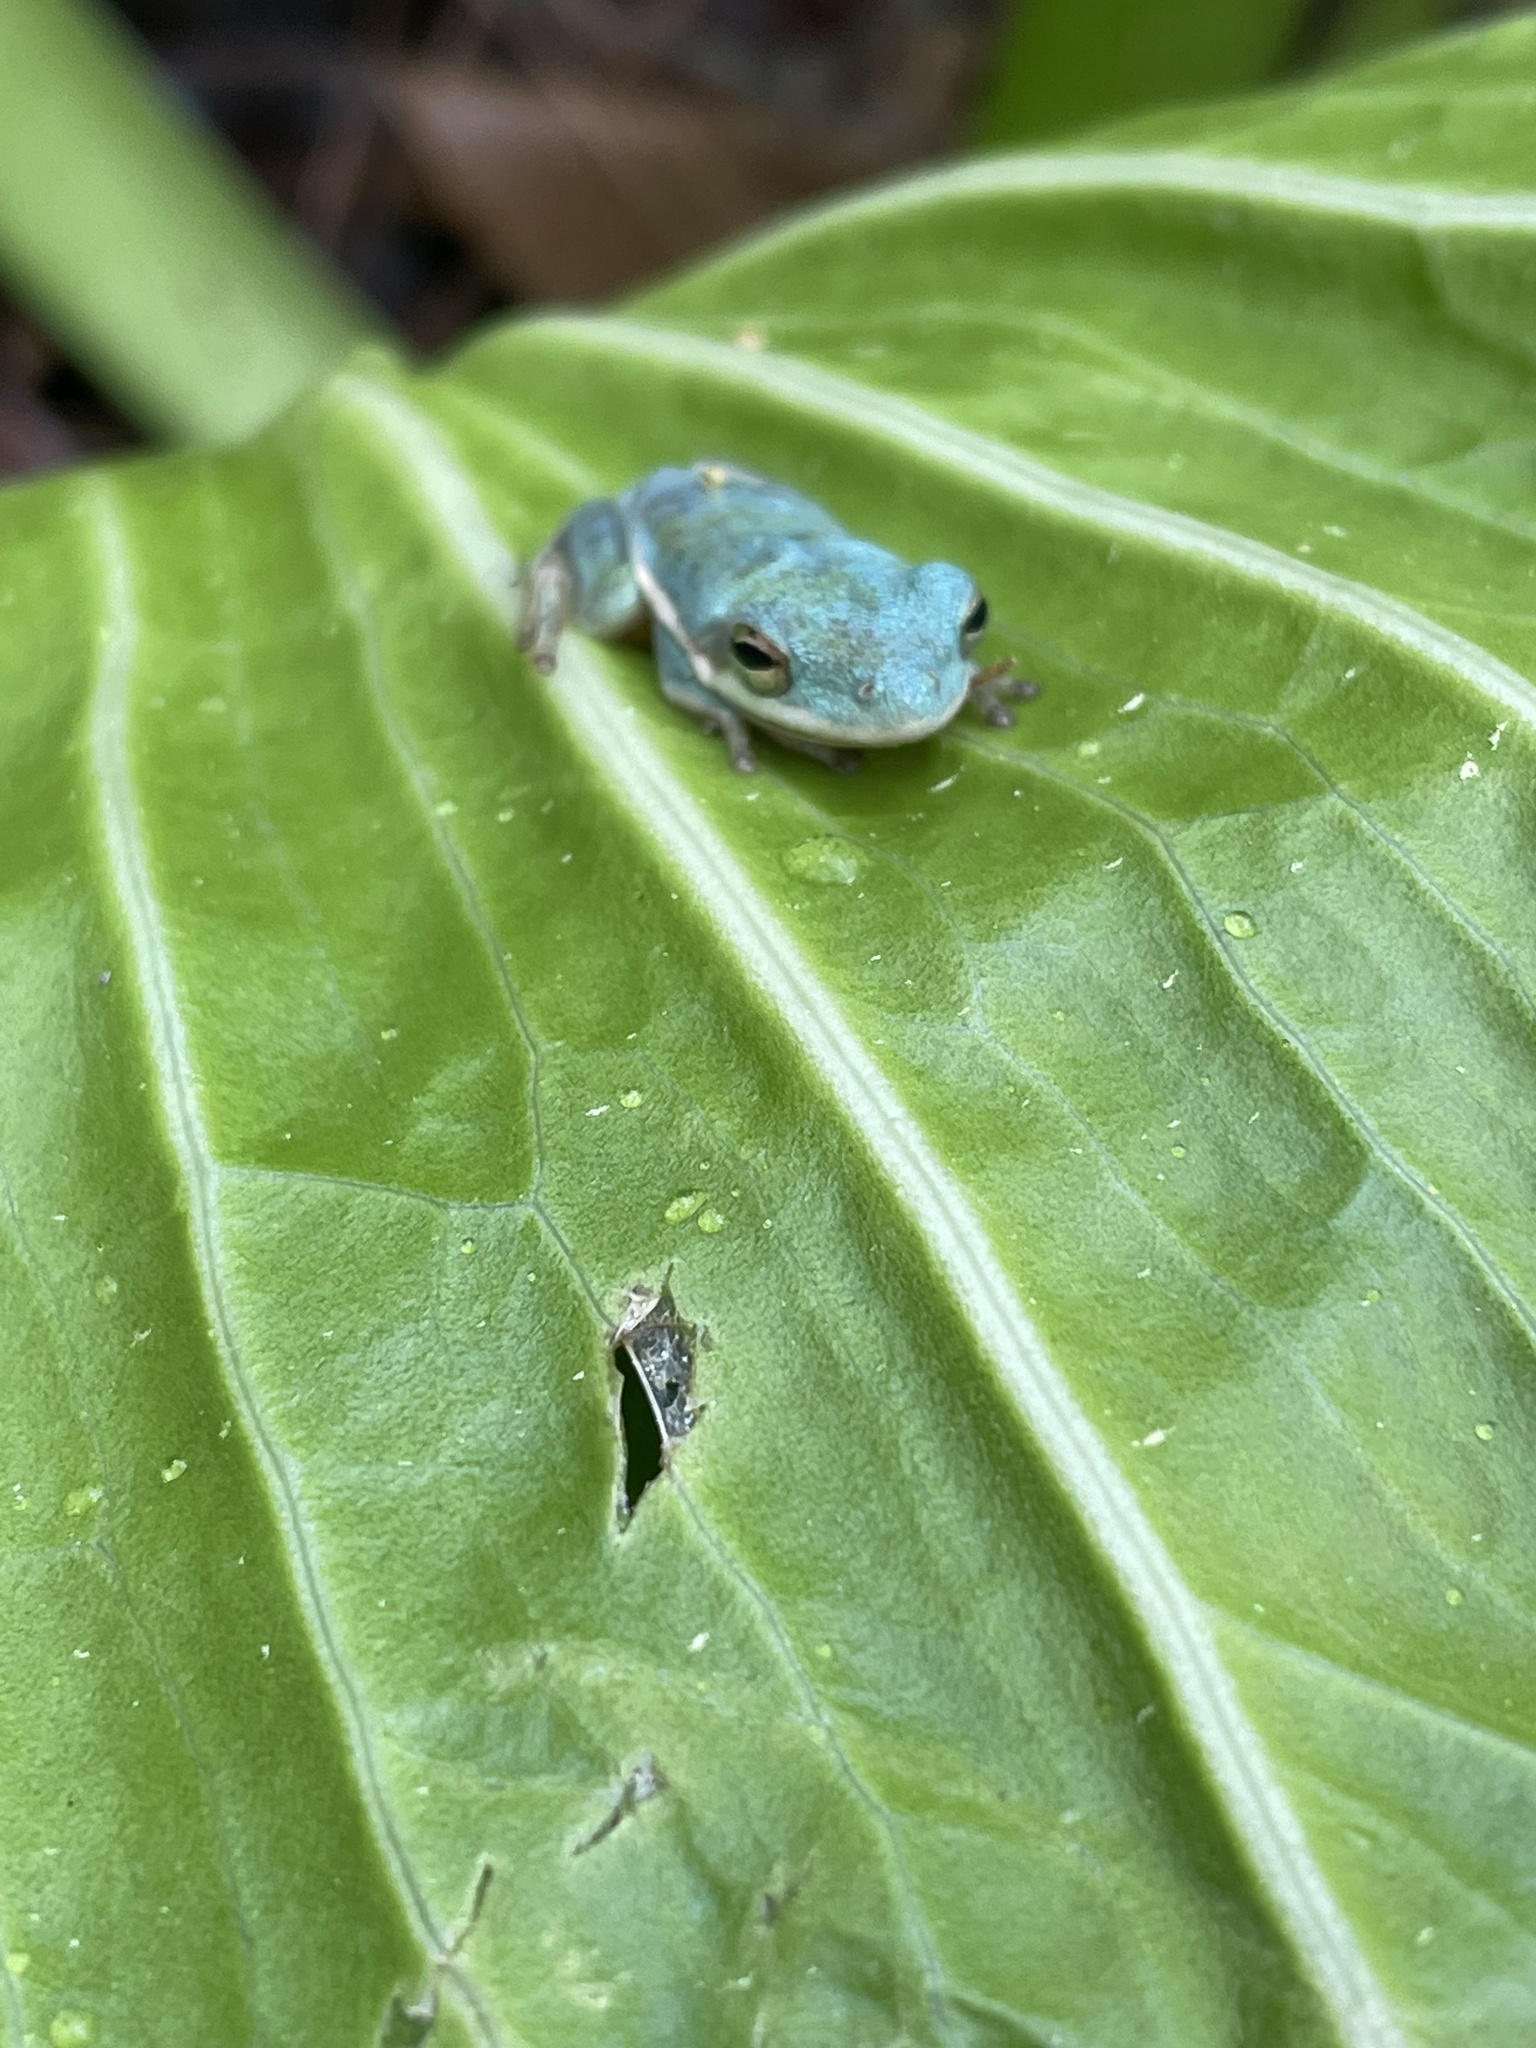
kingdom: Animalia
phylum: Chordata
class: Amphibia
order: Anura
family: Hylidae
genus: Dryophytes
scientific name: Dryophytes cinereus
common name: Green treefrog
